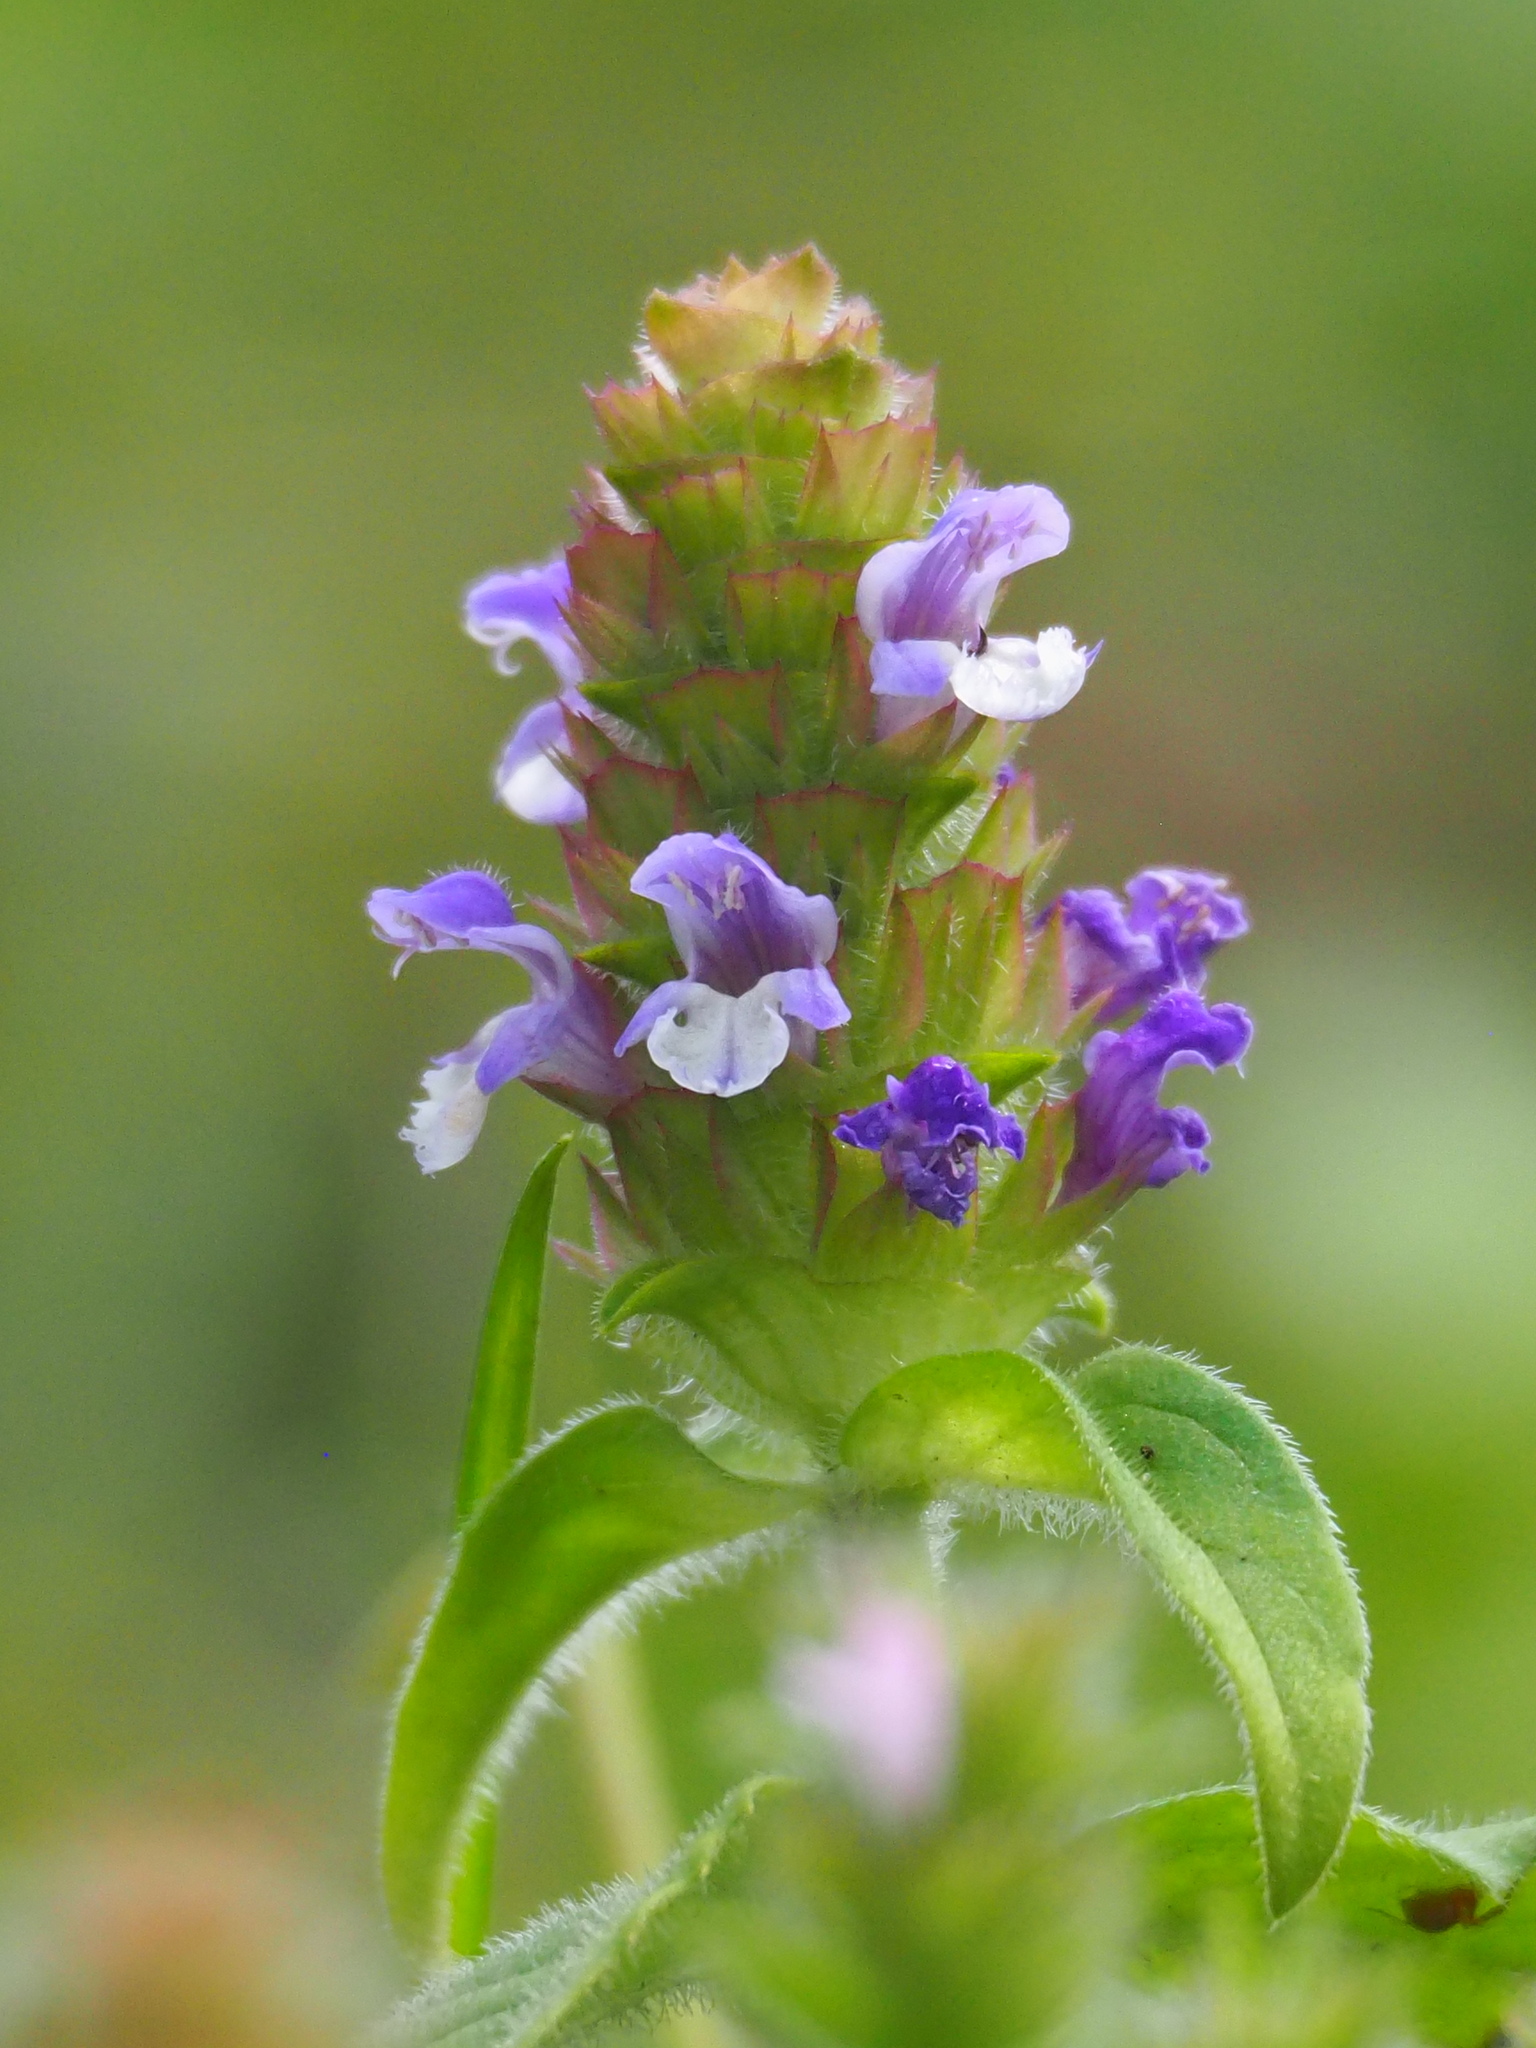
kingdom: Plantae
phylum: Tracheophyta
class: Magnoliopsida
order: Lamiales
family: Lamiaceae
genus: Prunella
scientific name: Prunella vulgaris
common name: Heal-all
